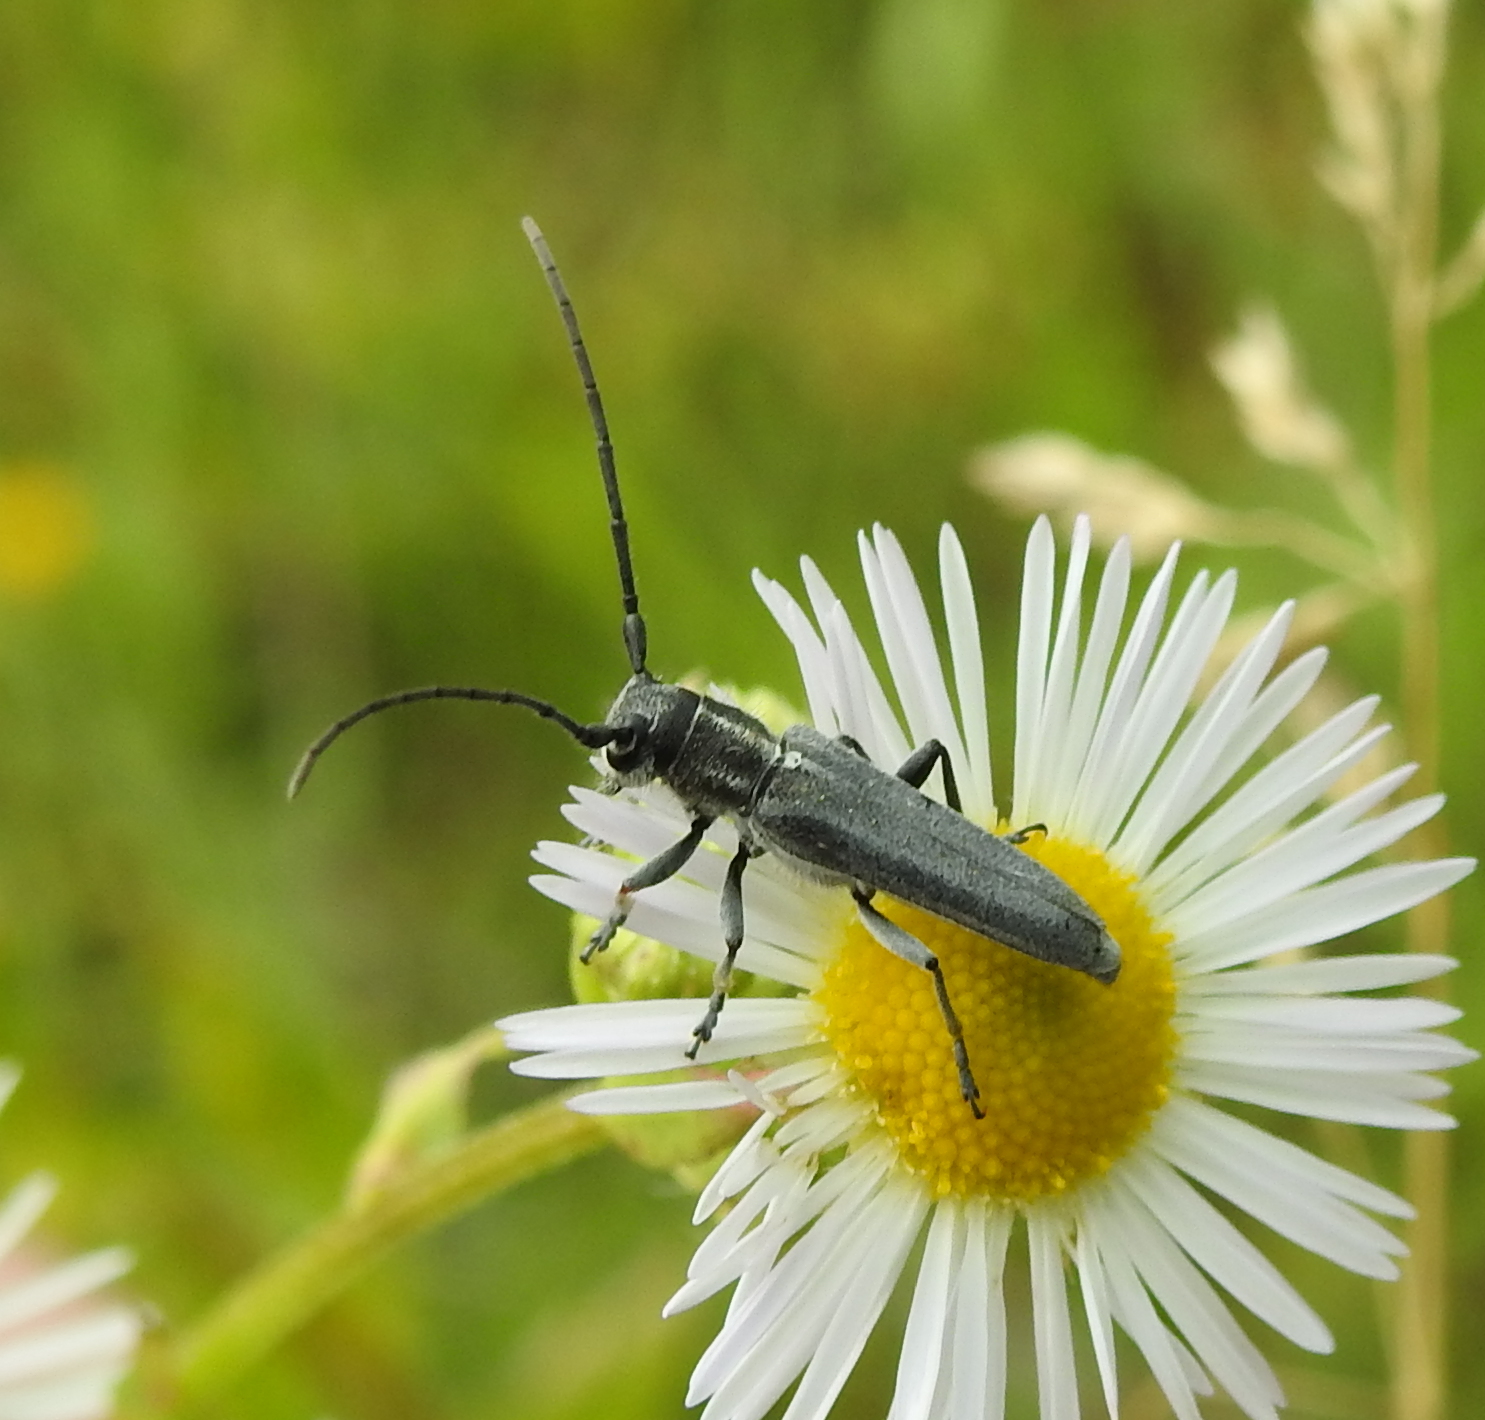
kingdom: Animalia
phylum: Arthropoda
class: Insecta
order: Coleoptera
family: Cerambycidae
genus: Phytoecia
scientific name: Phytoecia nigricornis
